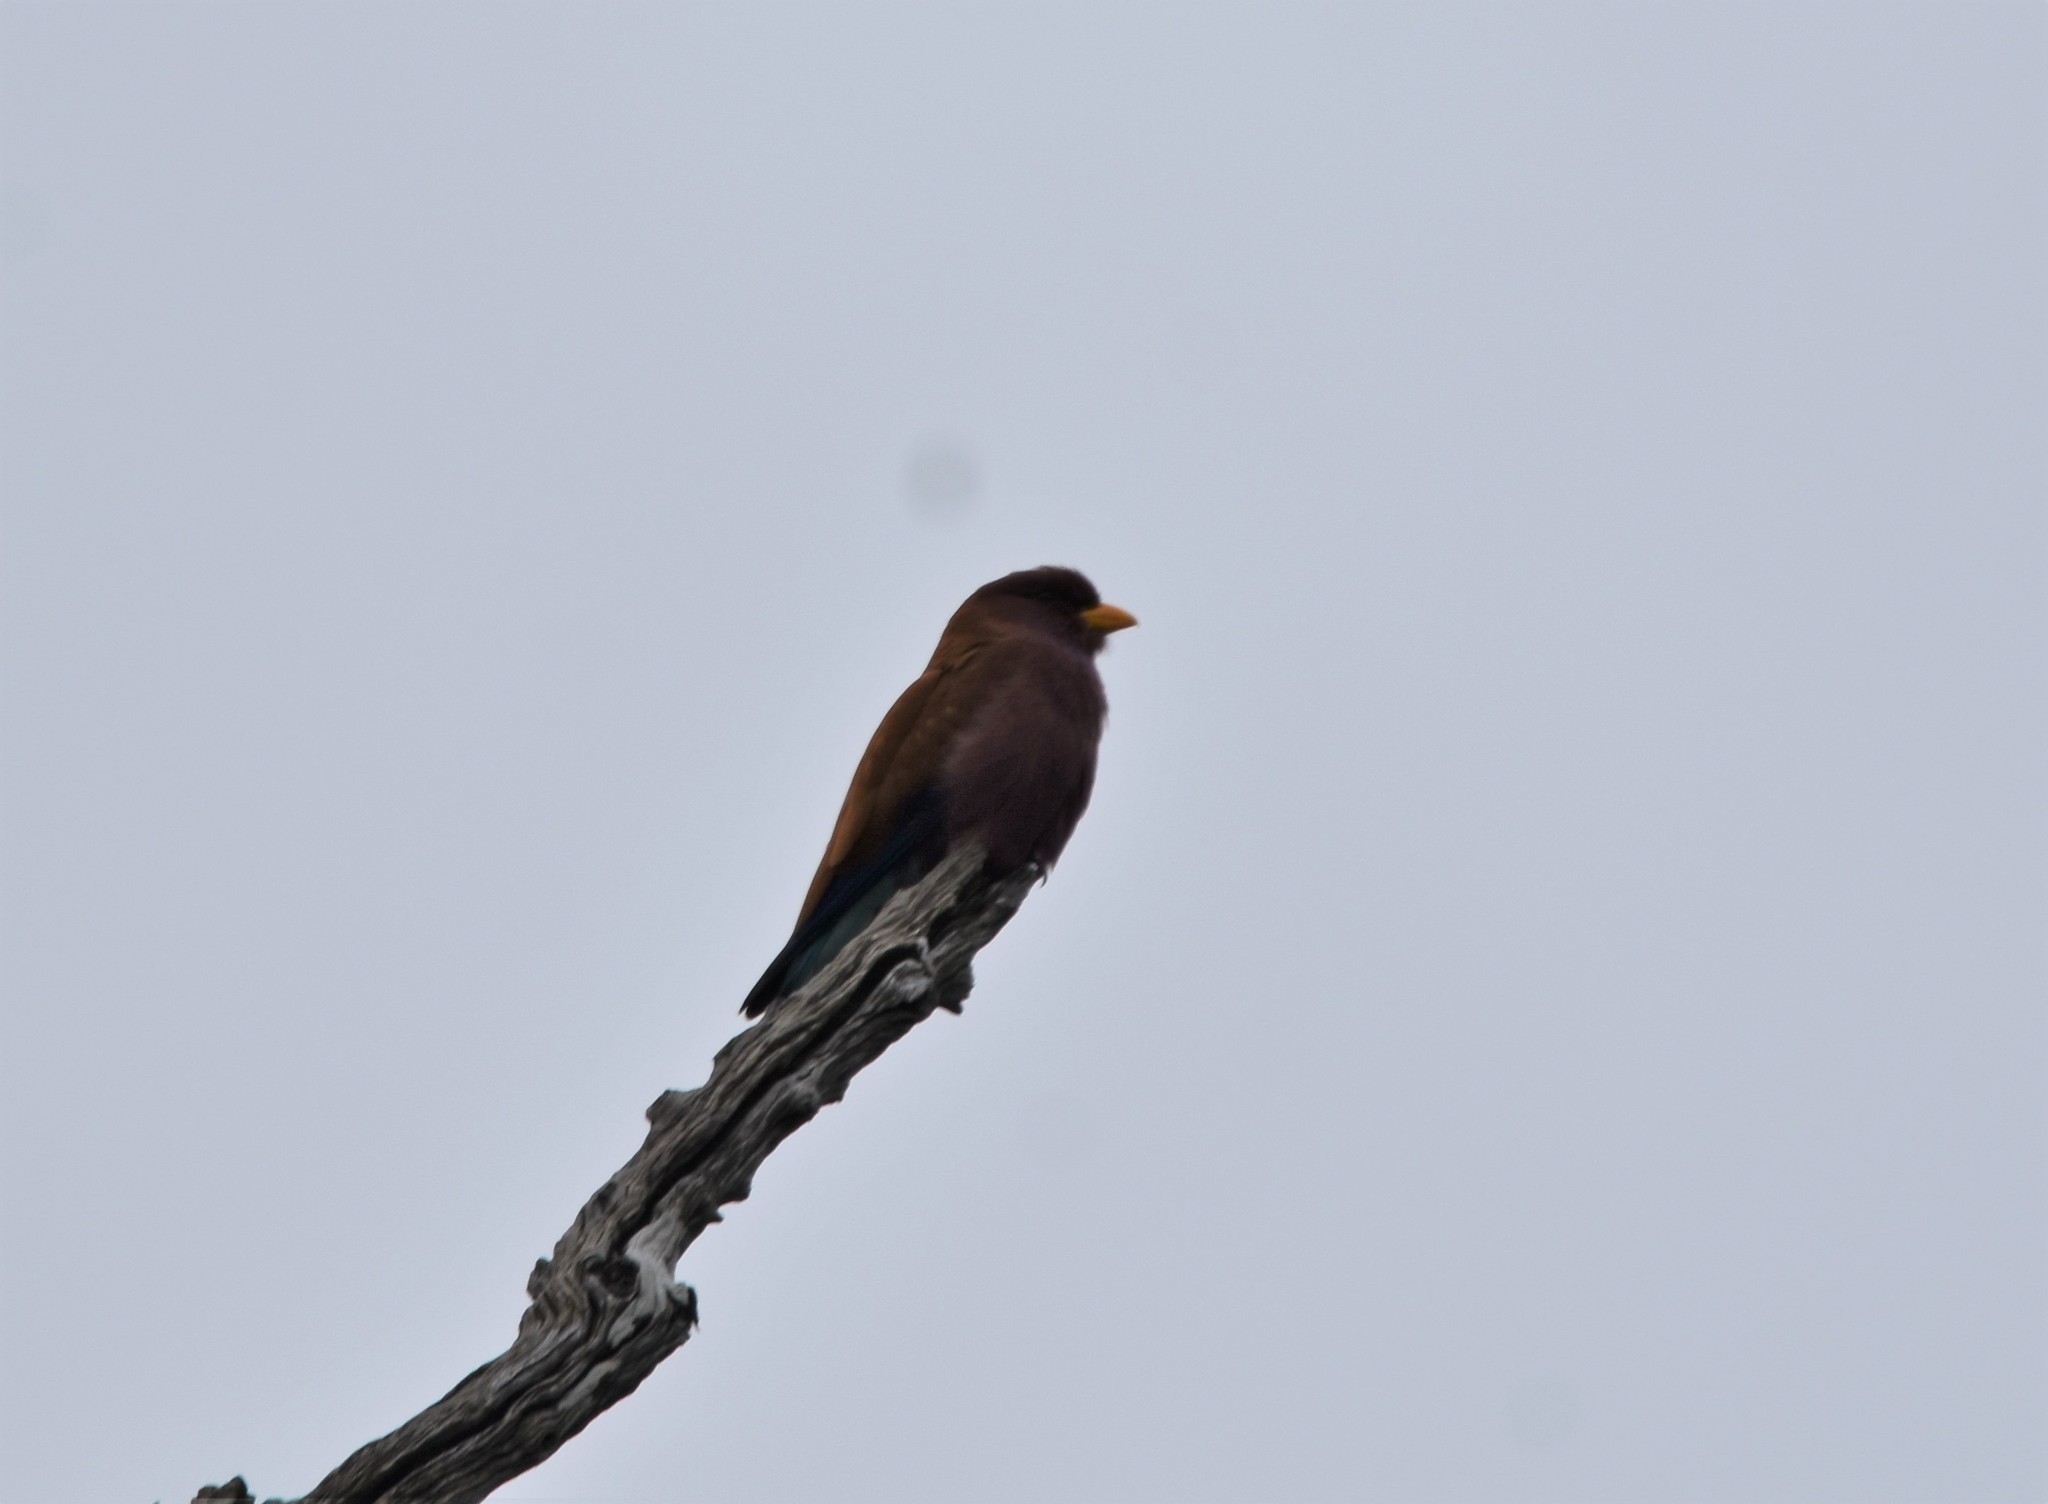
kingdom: Animalia
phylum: Chordata
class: Aves
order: Coraciiformes
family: Coraciidae
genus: Eurystomus
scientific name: Eurystomus glaucurus
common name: Broad-billed roller
